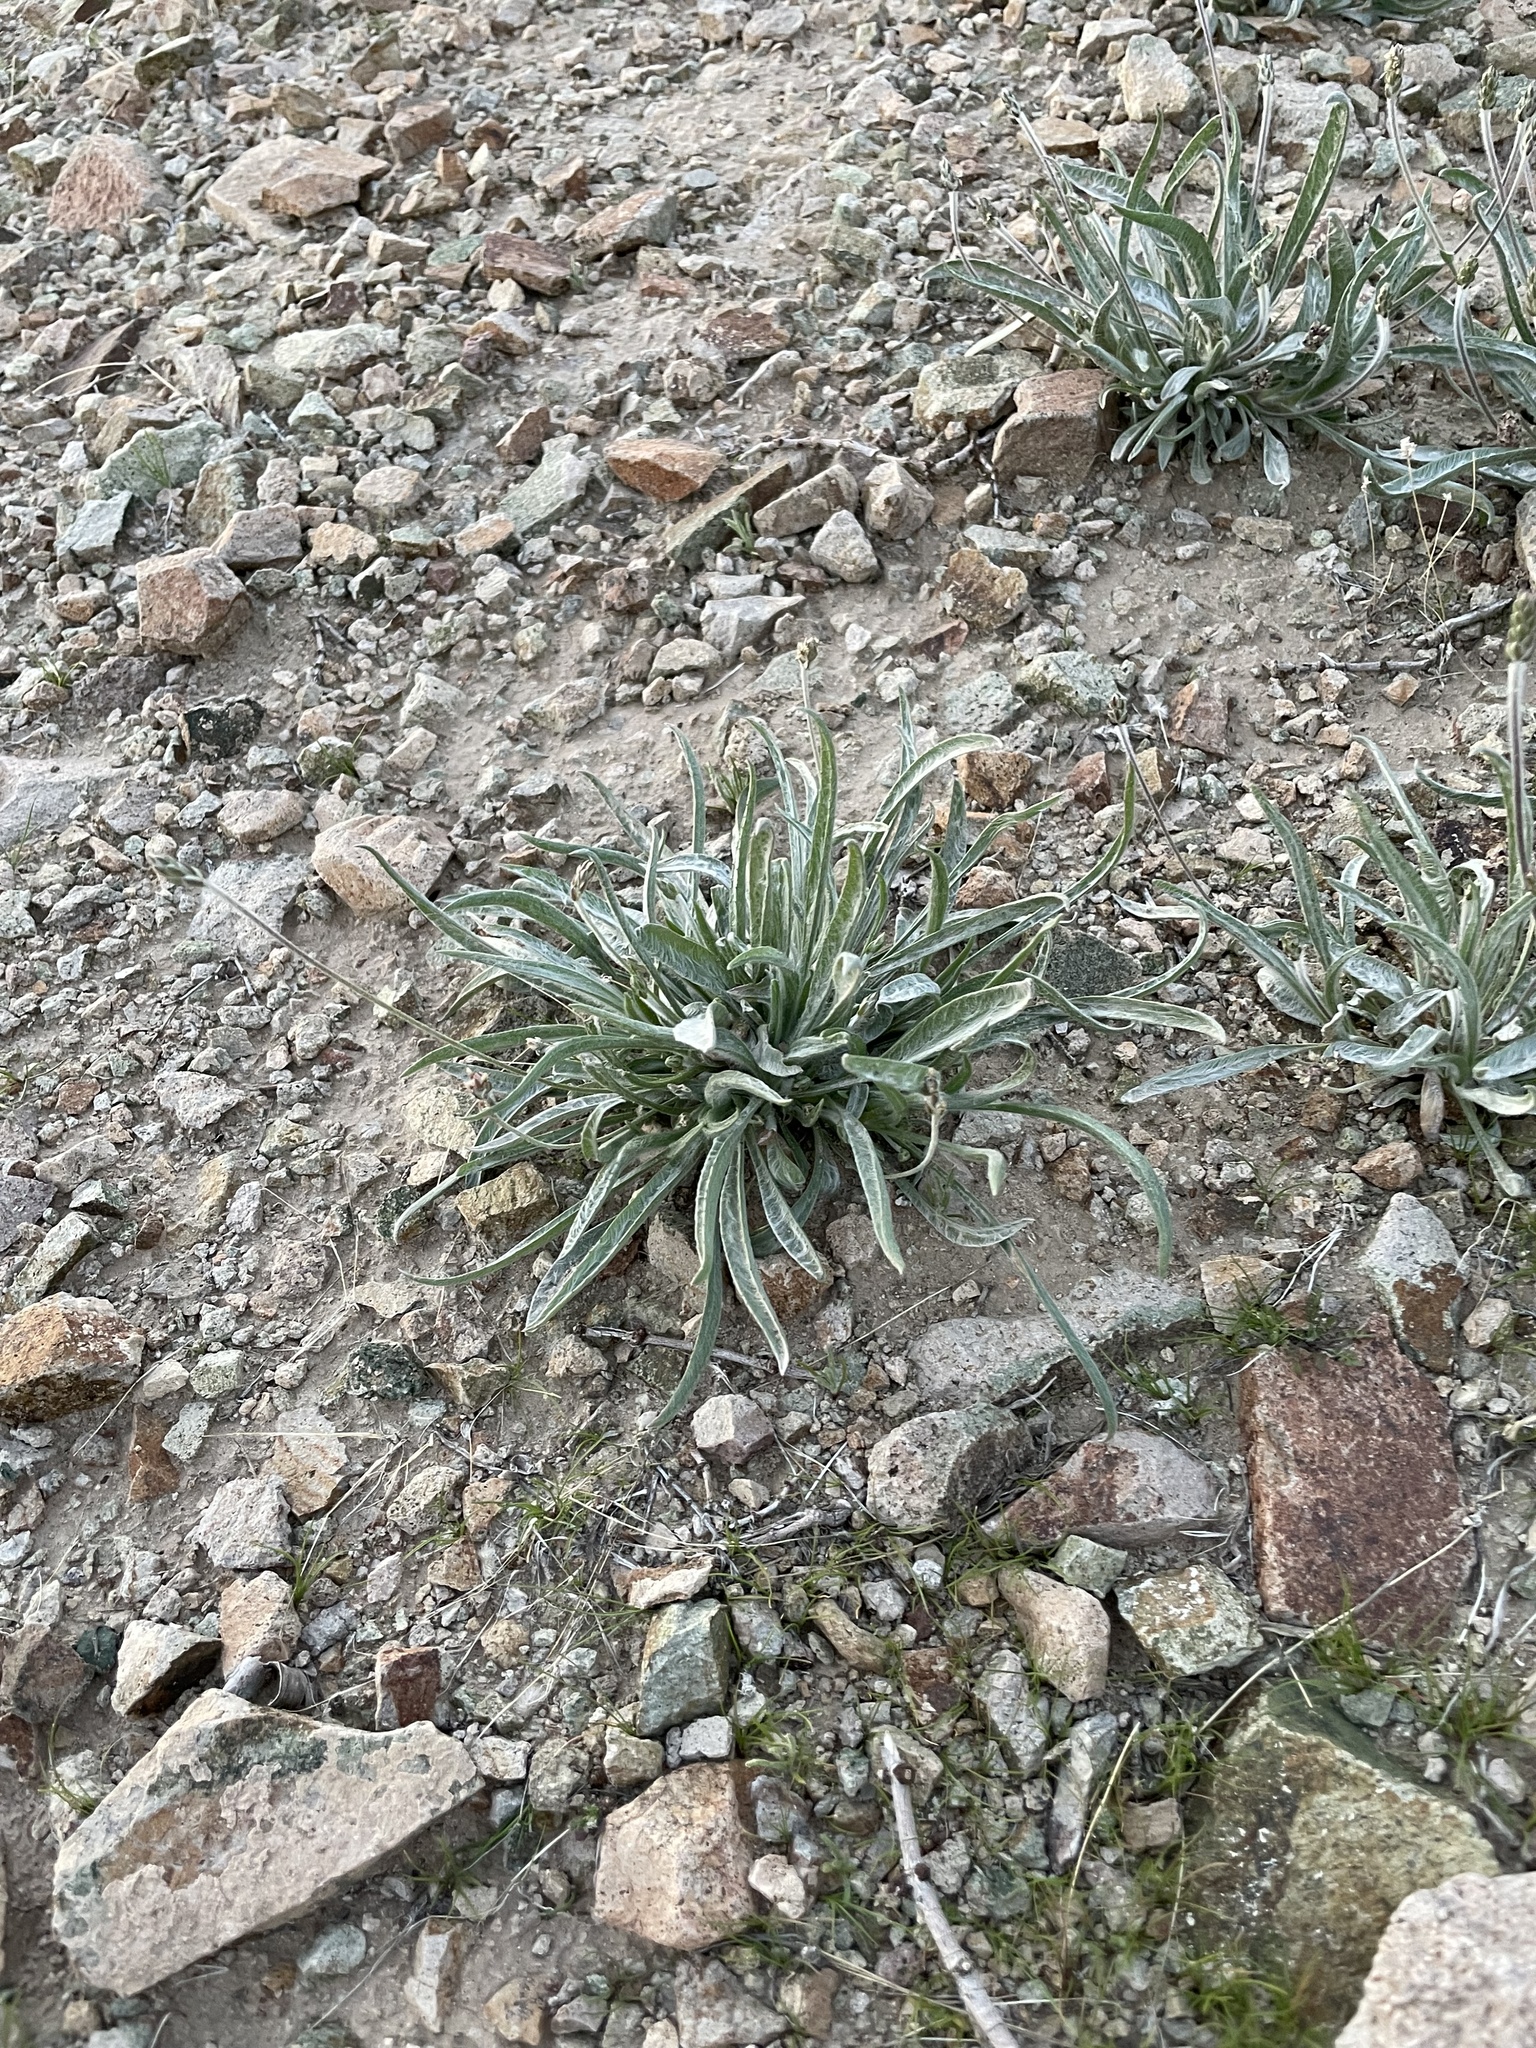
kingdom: Plantae
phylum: Tracheophyta
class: Magnoliopsida
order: Lamiales
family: Plantaginaceae
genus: Plantago
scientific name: Plantago ovata
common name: Blond plantain
